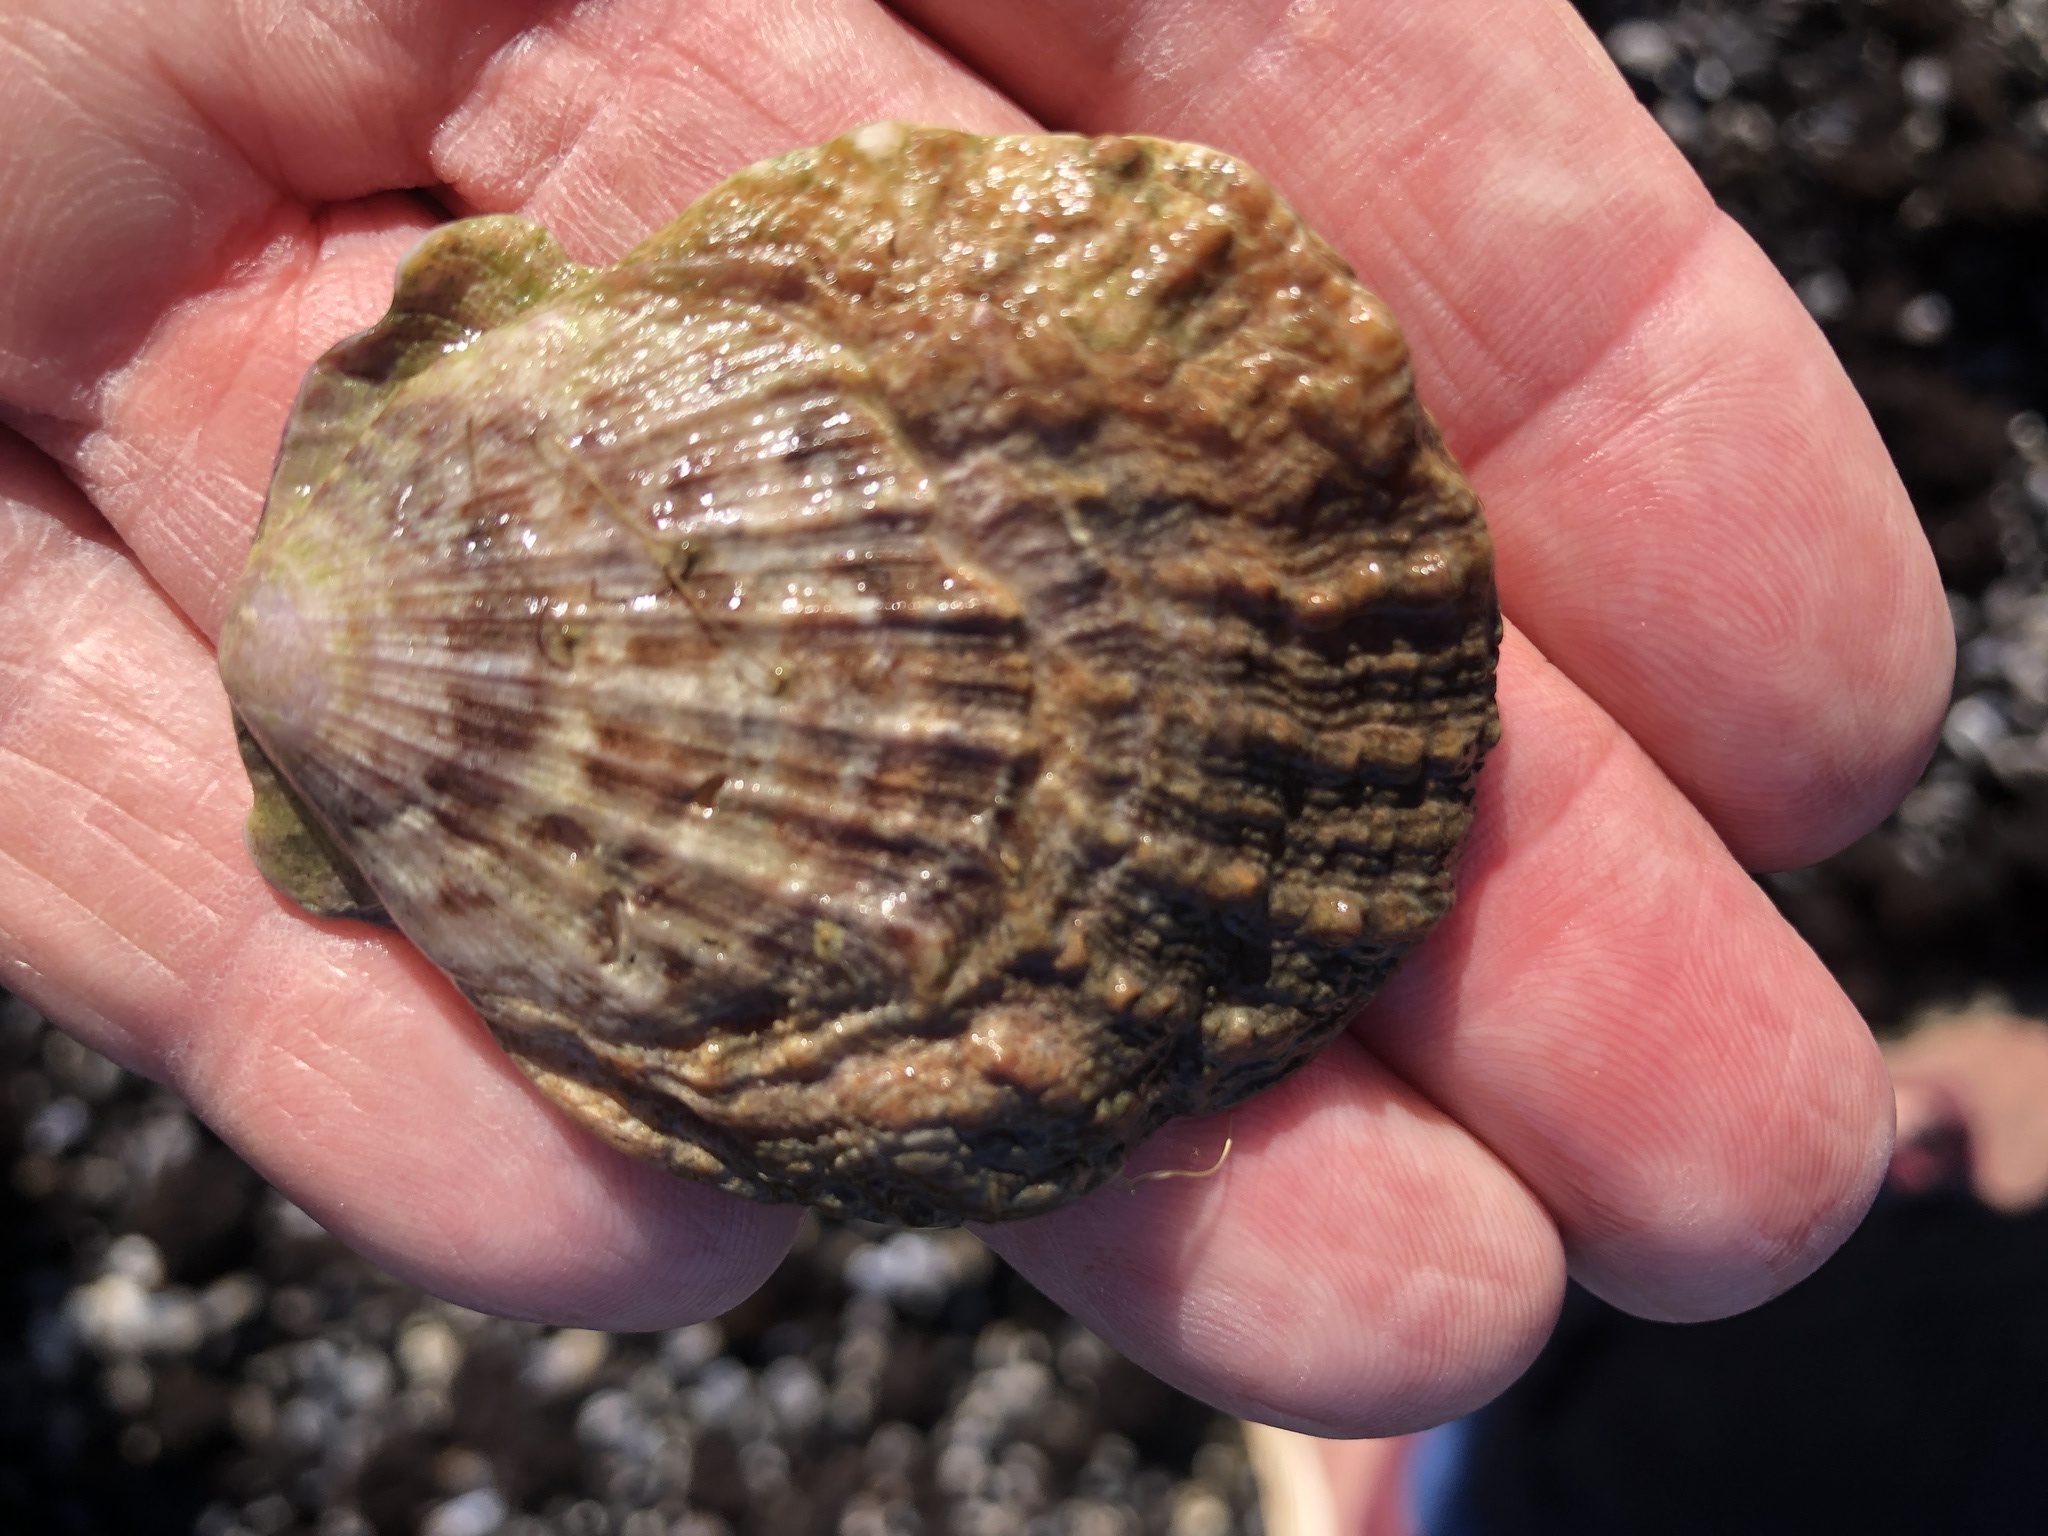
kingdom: Animalia
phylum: Mollusca
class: Bivalvia
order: Pectinida
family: Pectinidae
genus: Crassadoma
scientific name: Crassadoma gigantea
